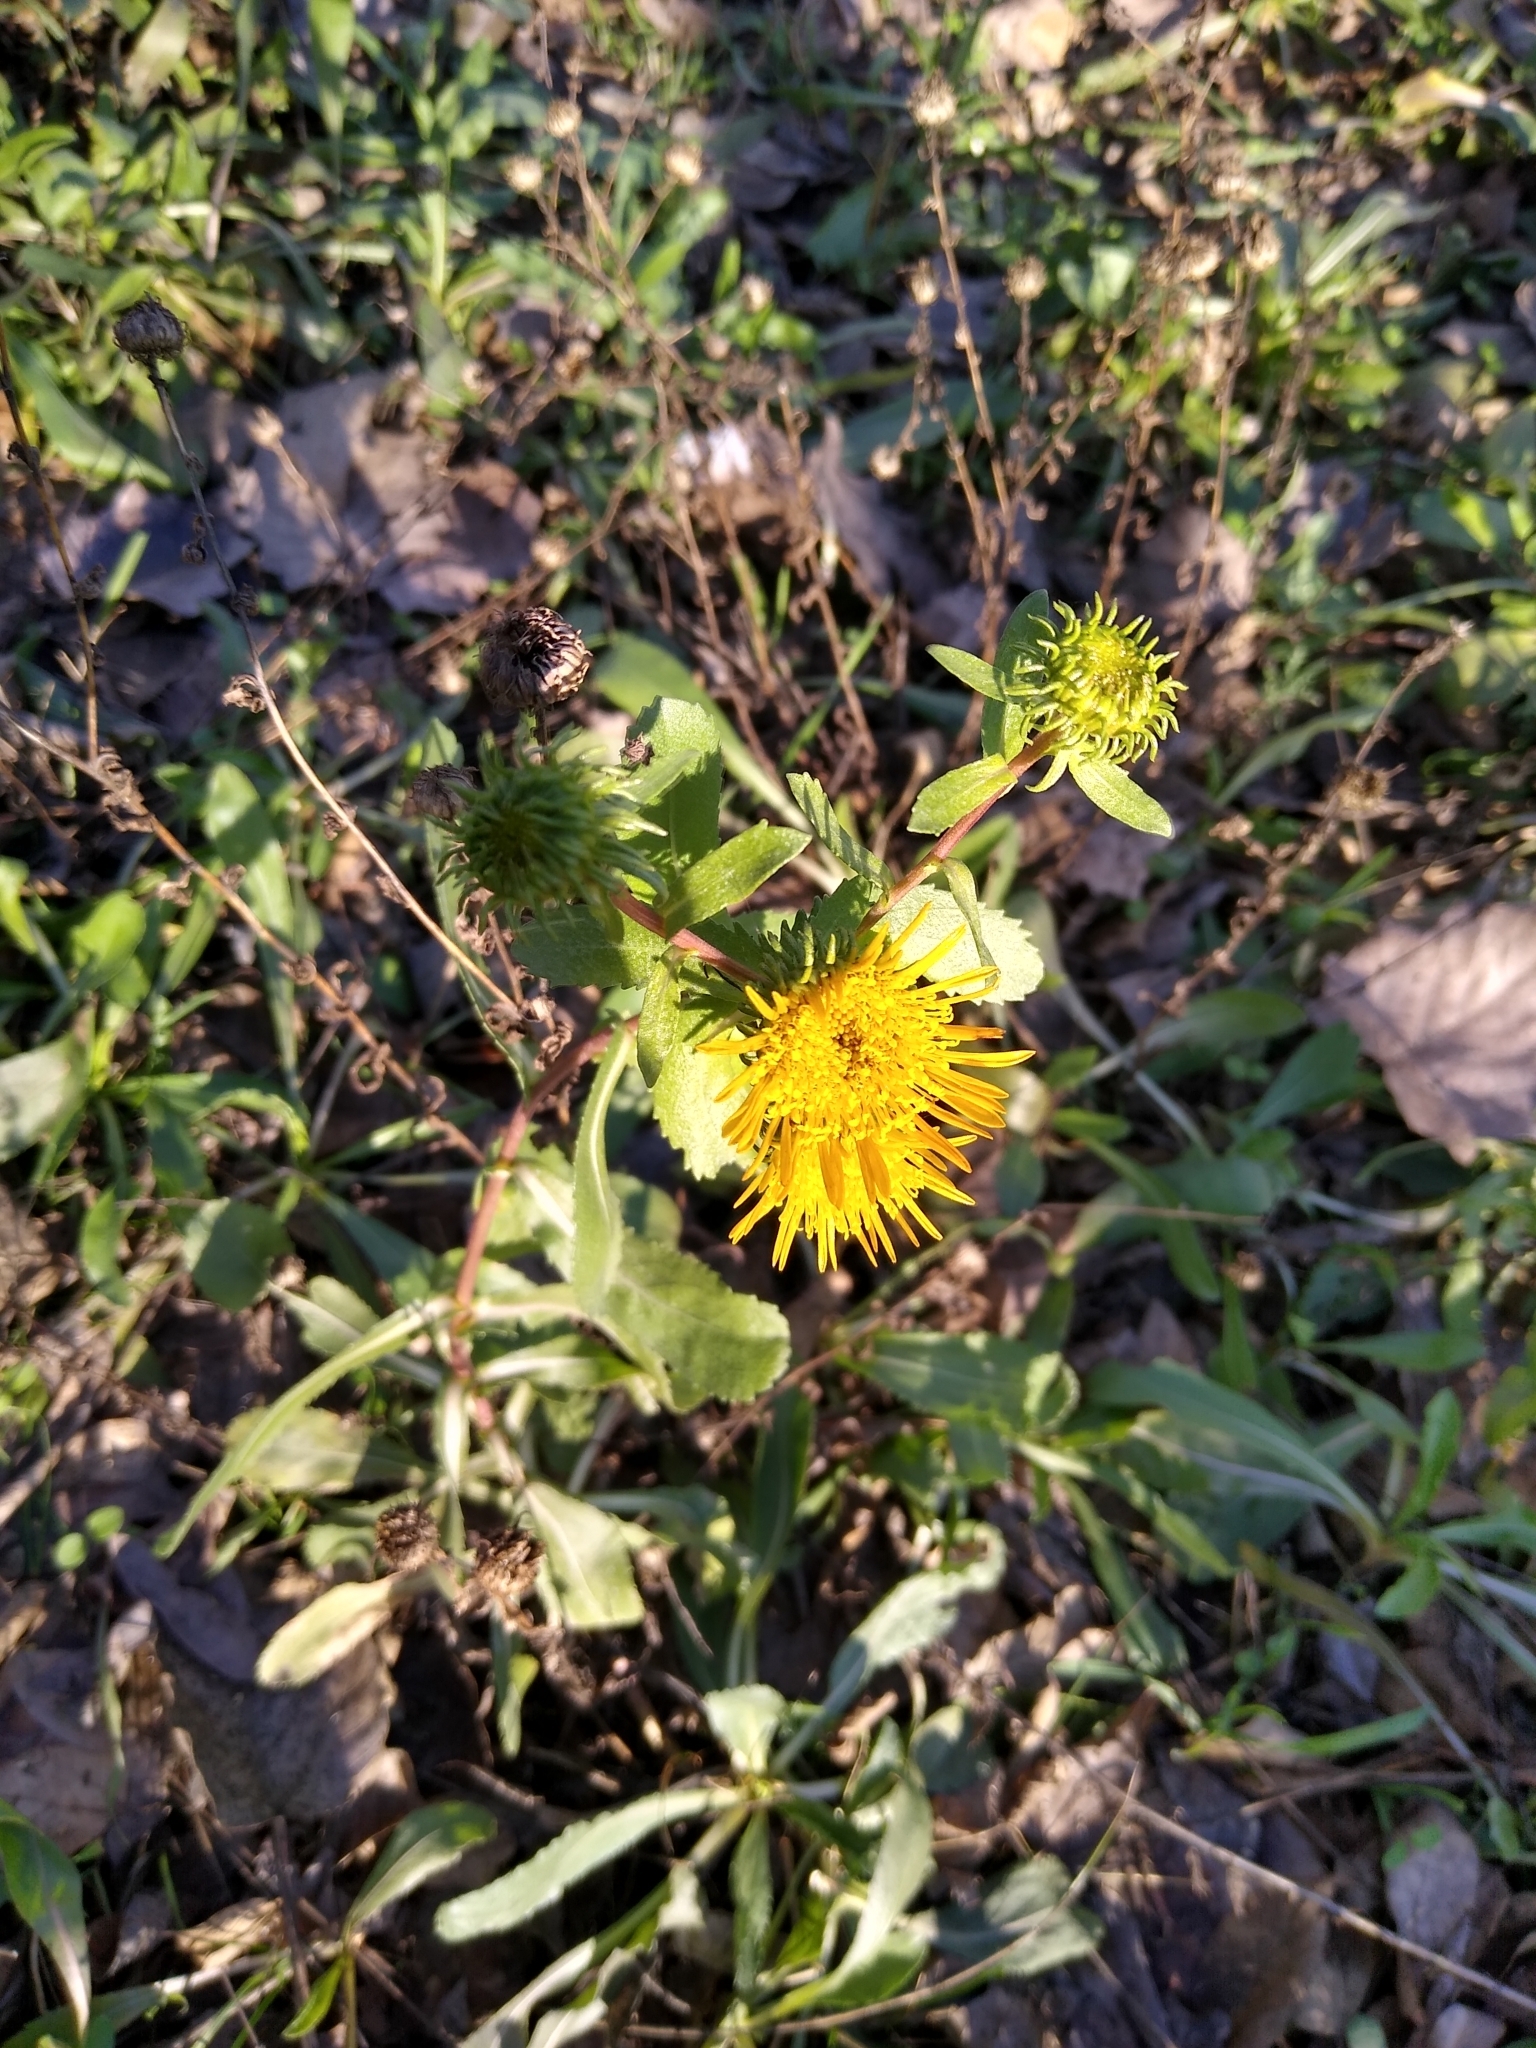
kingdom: Plantae
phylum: Tracheophyta
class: Magnoliopsida
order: Asterales
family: Asteraceae
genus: Grindelia
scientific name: Grindelia squarrosa
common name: Curly-cup gumweed
